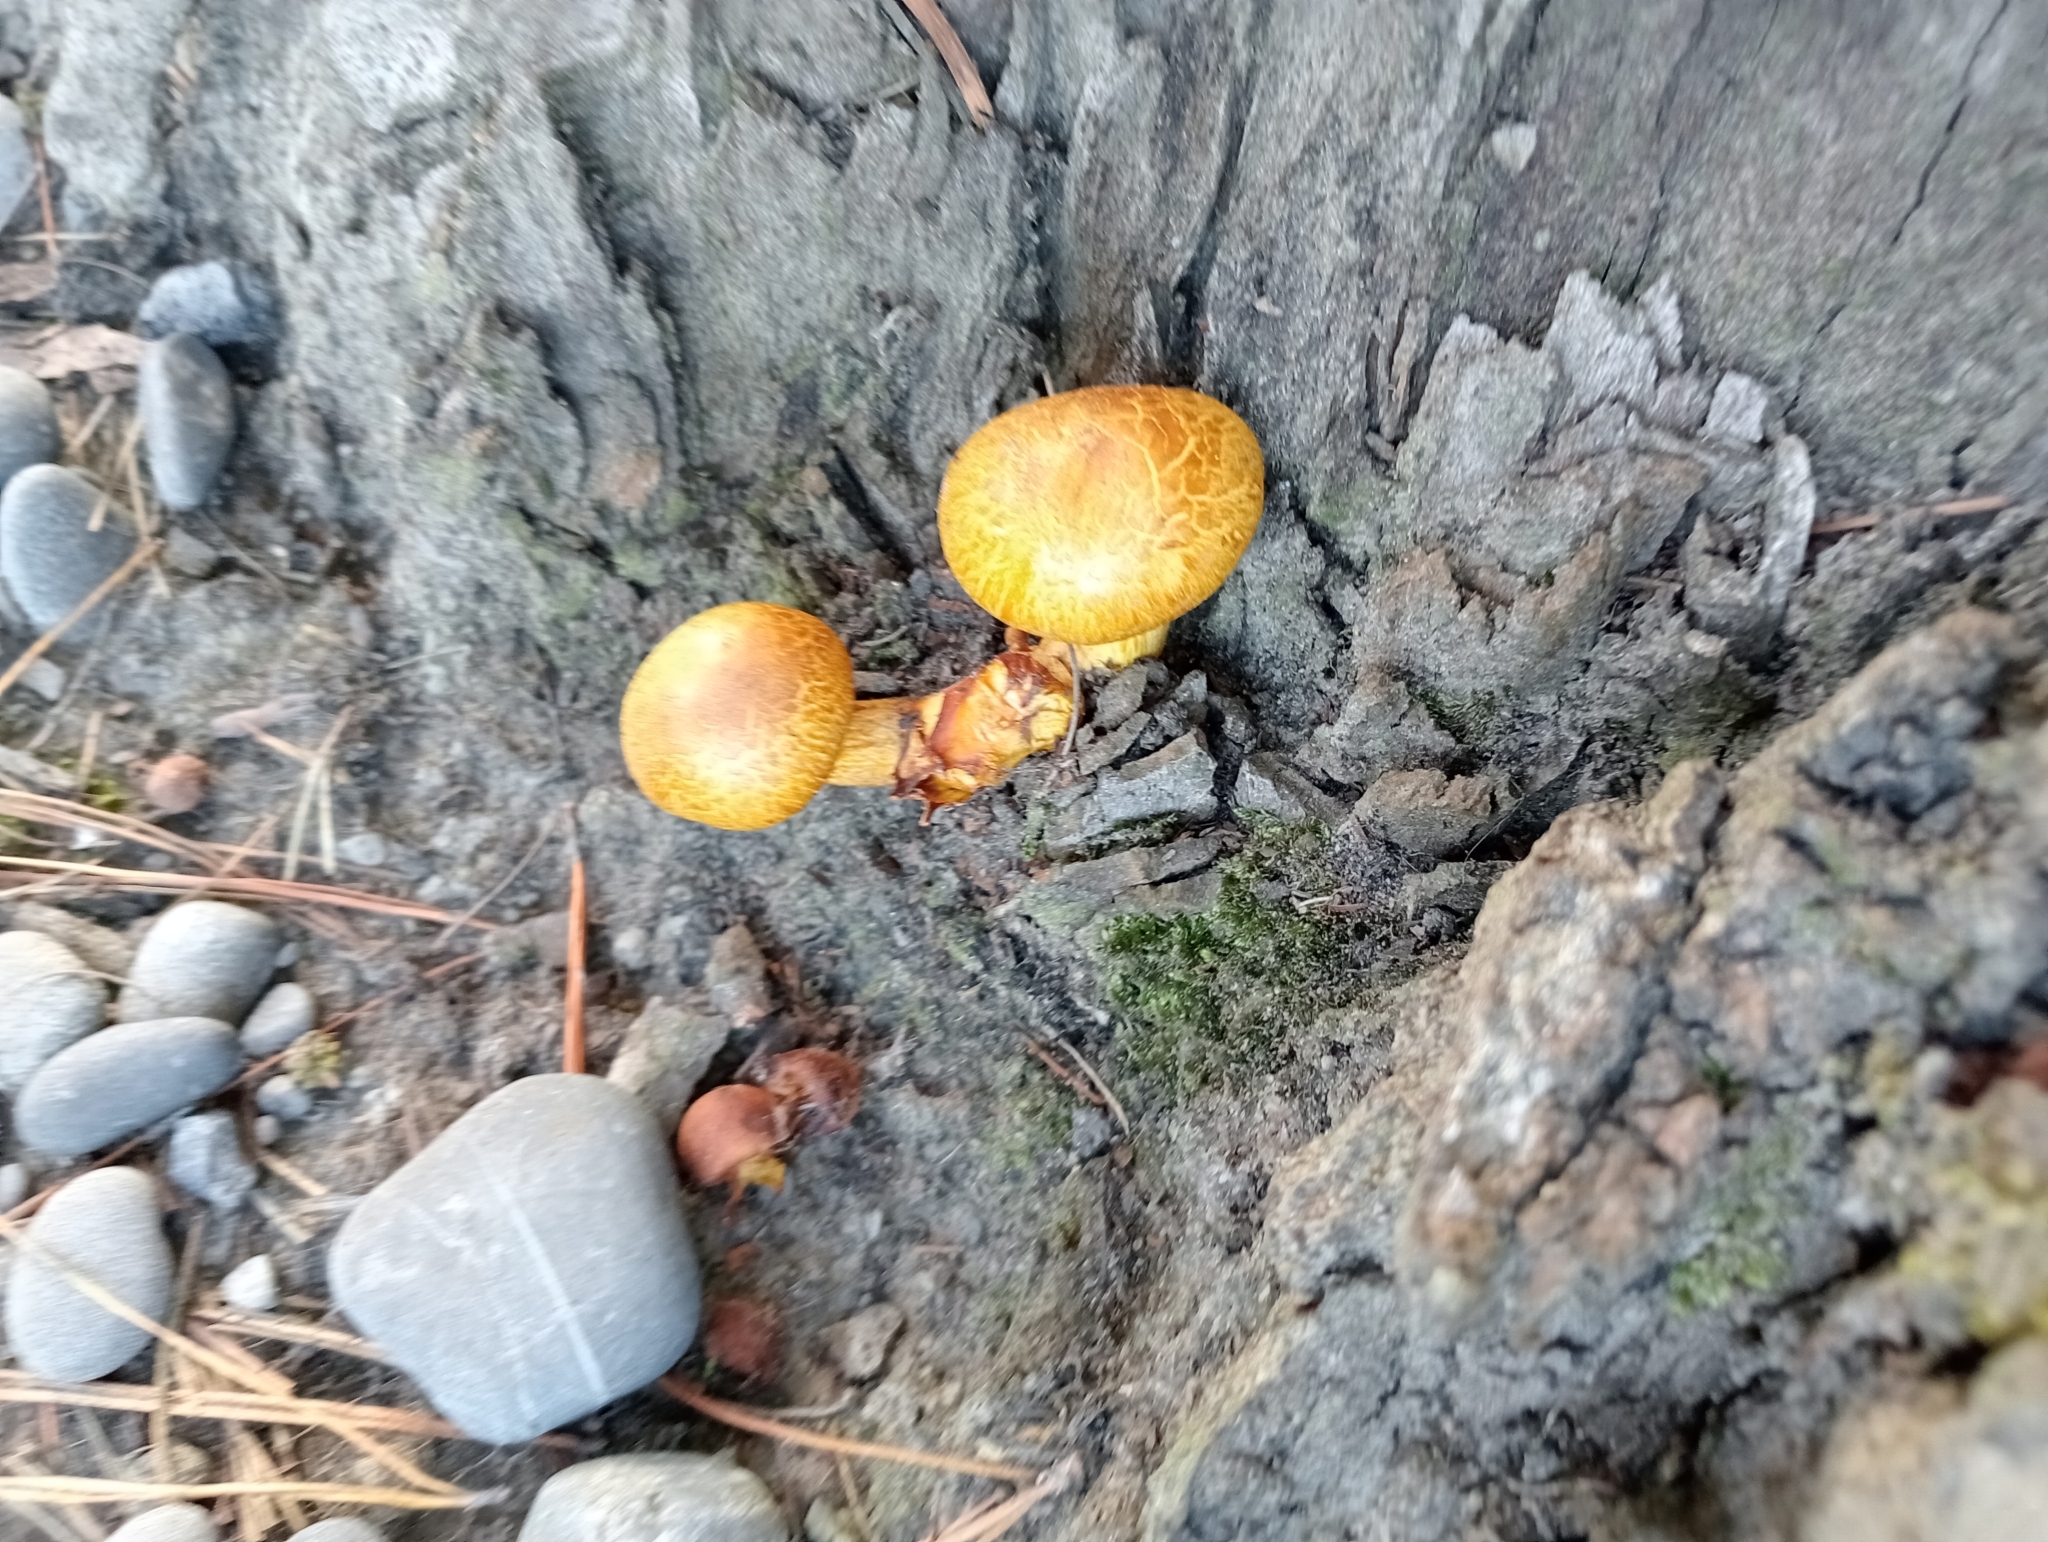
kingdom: Fungi
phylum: Basidiomycota
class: Agaricomycetes
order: Agaricales
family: Hymenogastraceae
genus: Gymnopilus
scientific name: Gymnopilus junonius
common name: Spectacular rustgill
